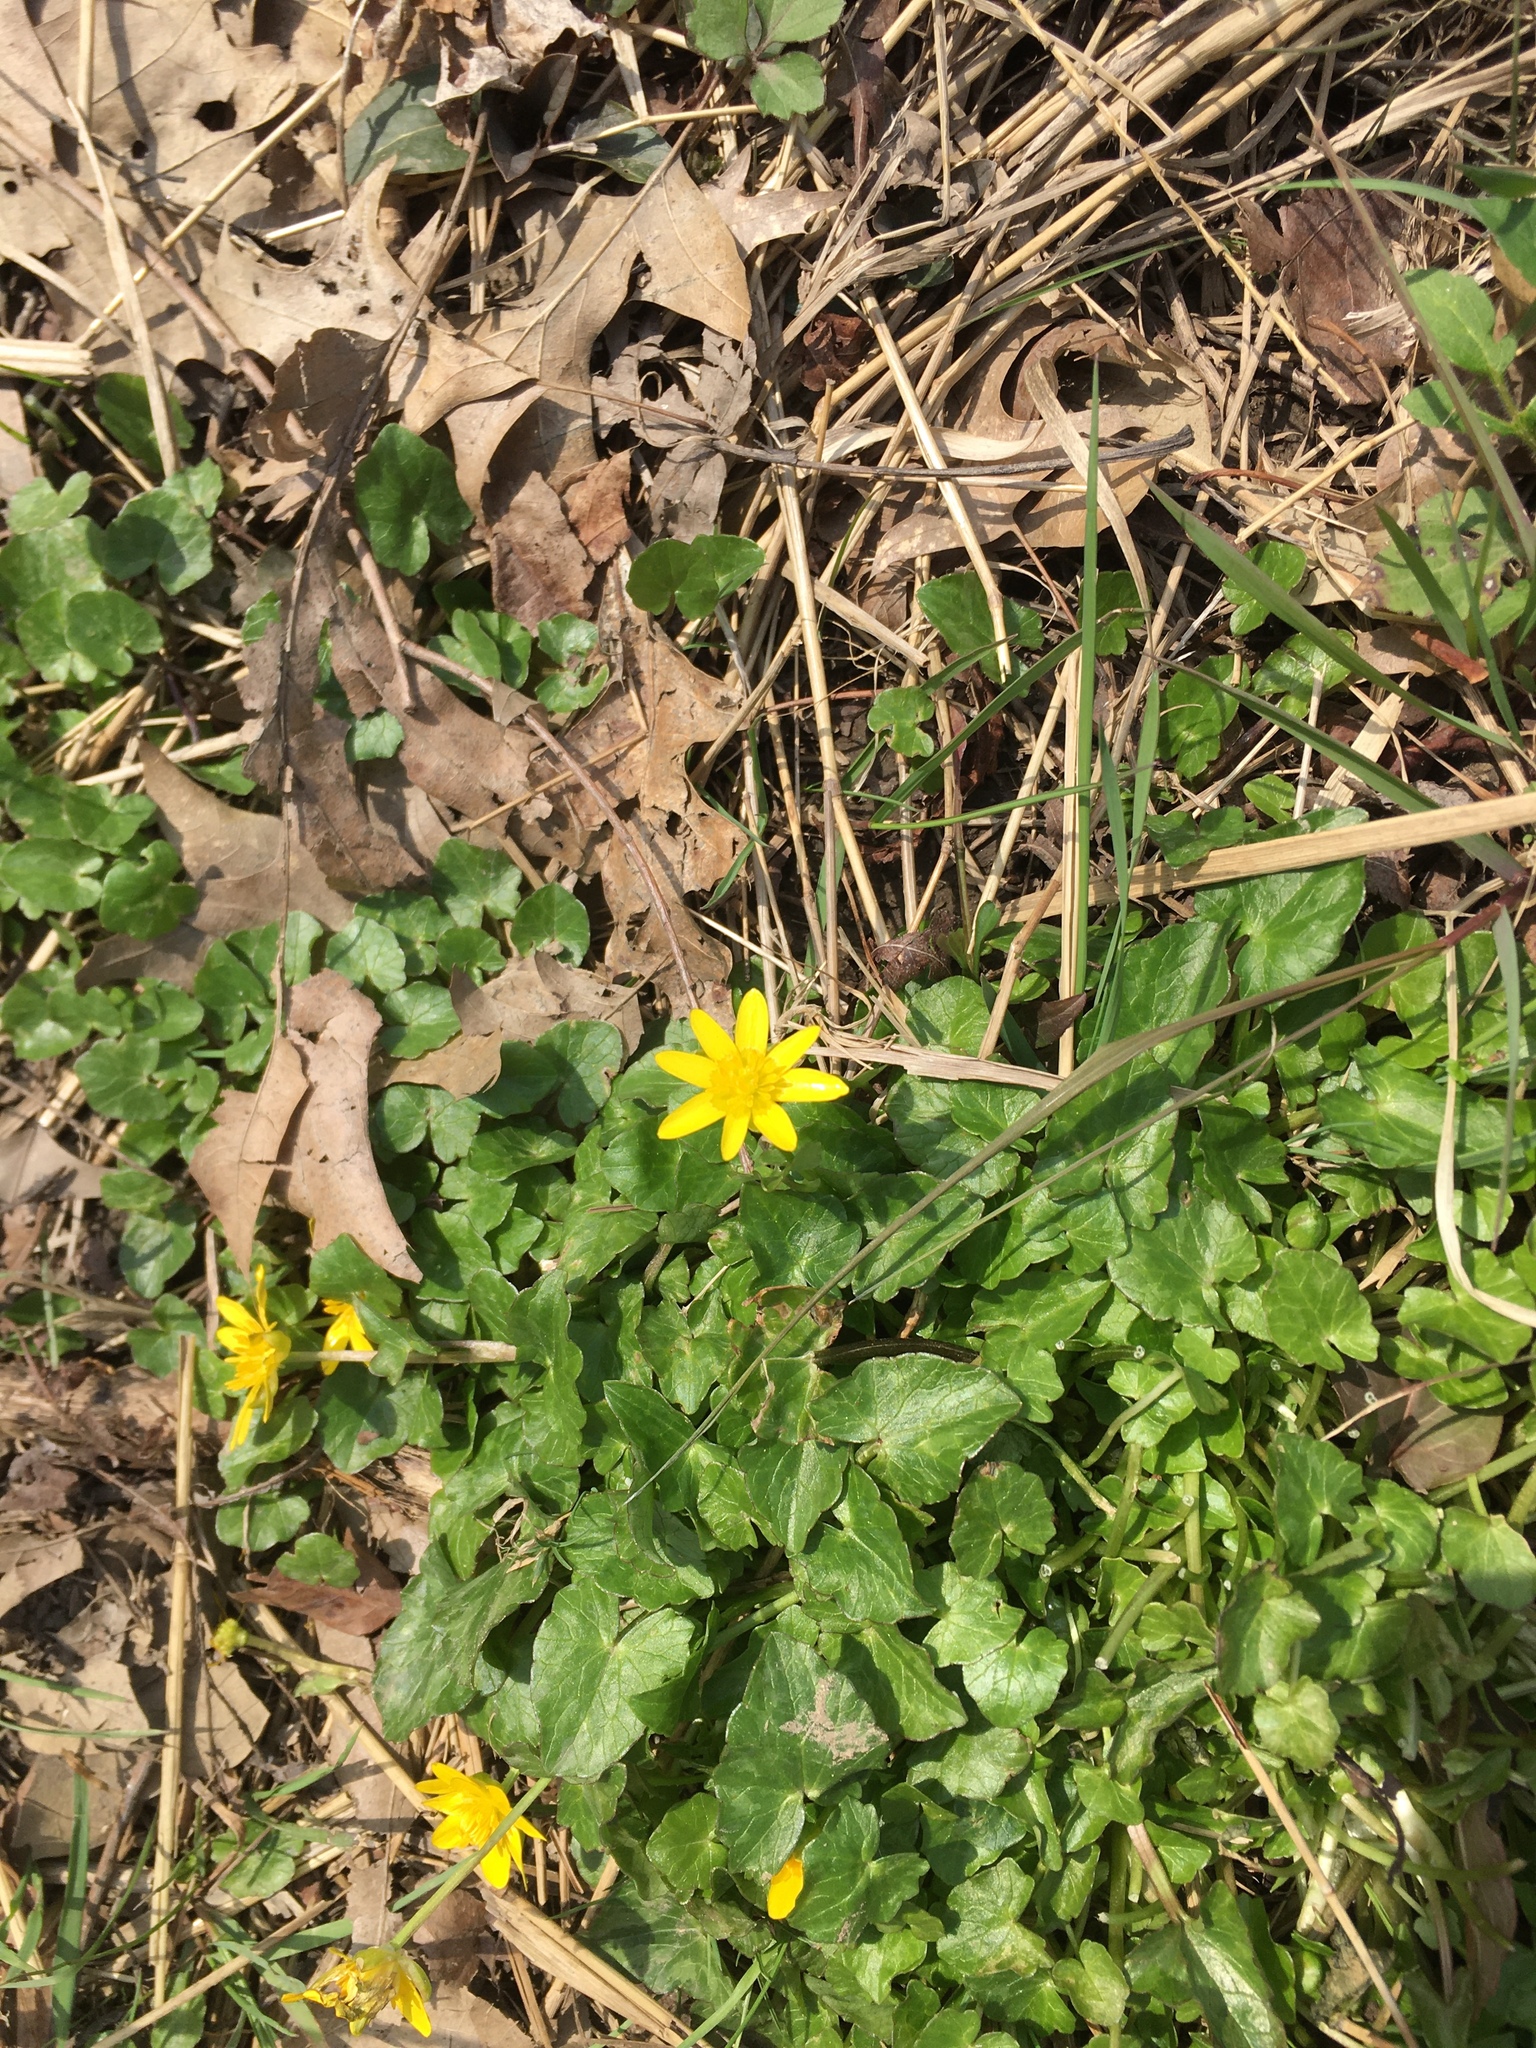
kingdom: Plantae
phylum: Tracheophyta
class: Magnoliopsida
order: Ranunculales
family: Ranunculaceae
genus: Ficaria
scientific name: Ficaria verna
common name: Lesser celandine
